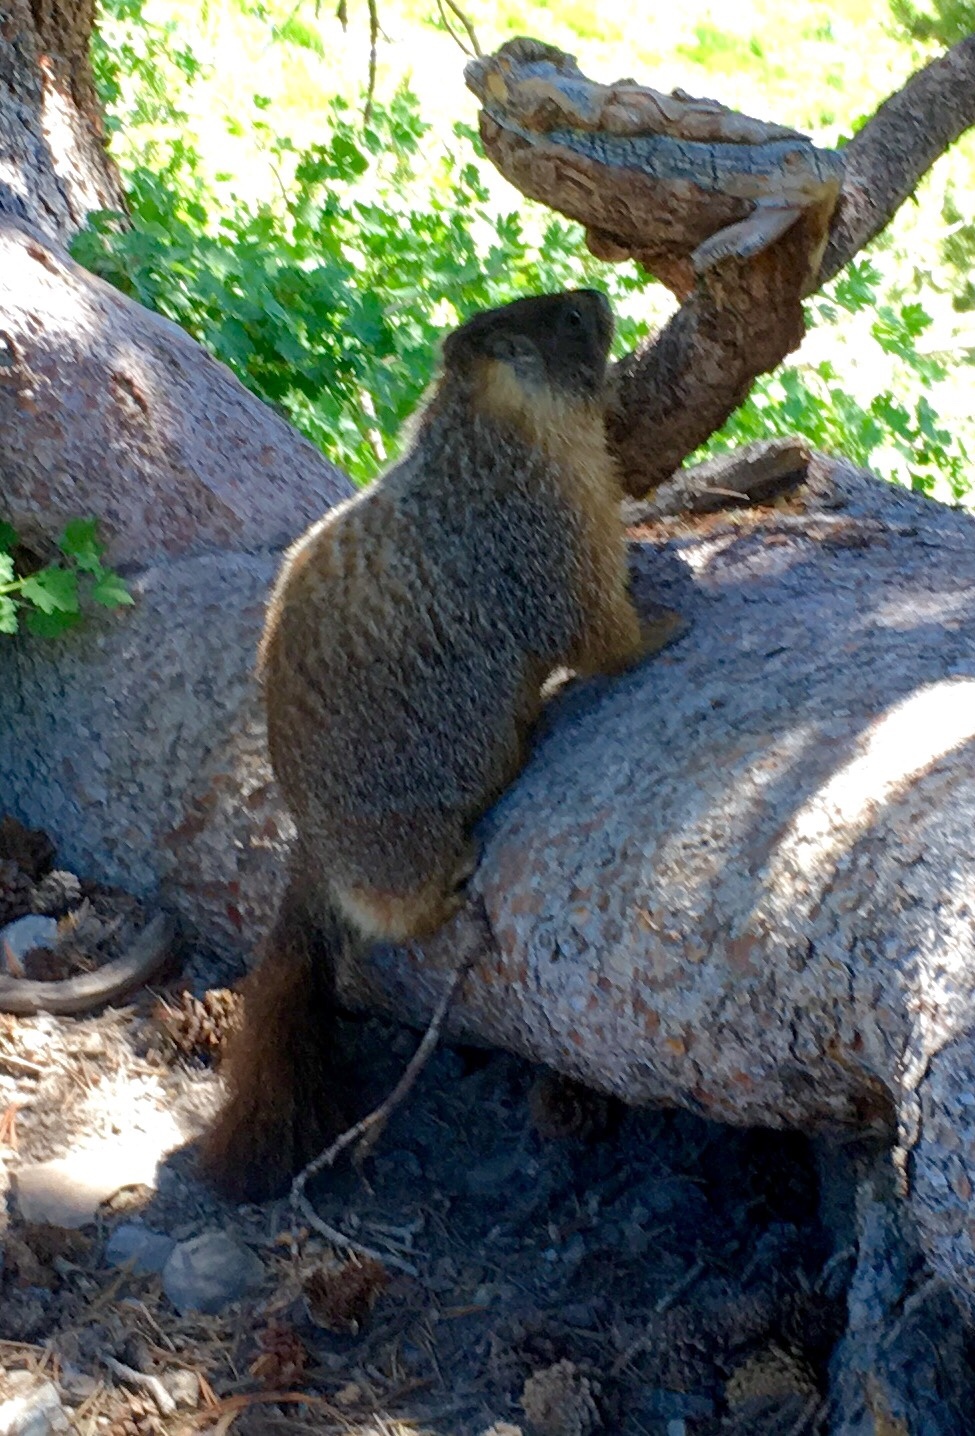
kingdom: Animalia
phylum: Chordata
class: Mammalia
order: Rodentia
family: Sciuridae
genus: Marmota
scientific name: Marmota flaviventris
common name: Yellow-bellied marmot
